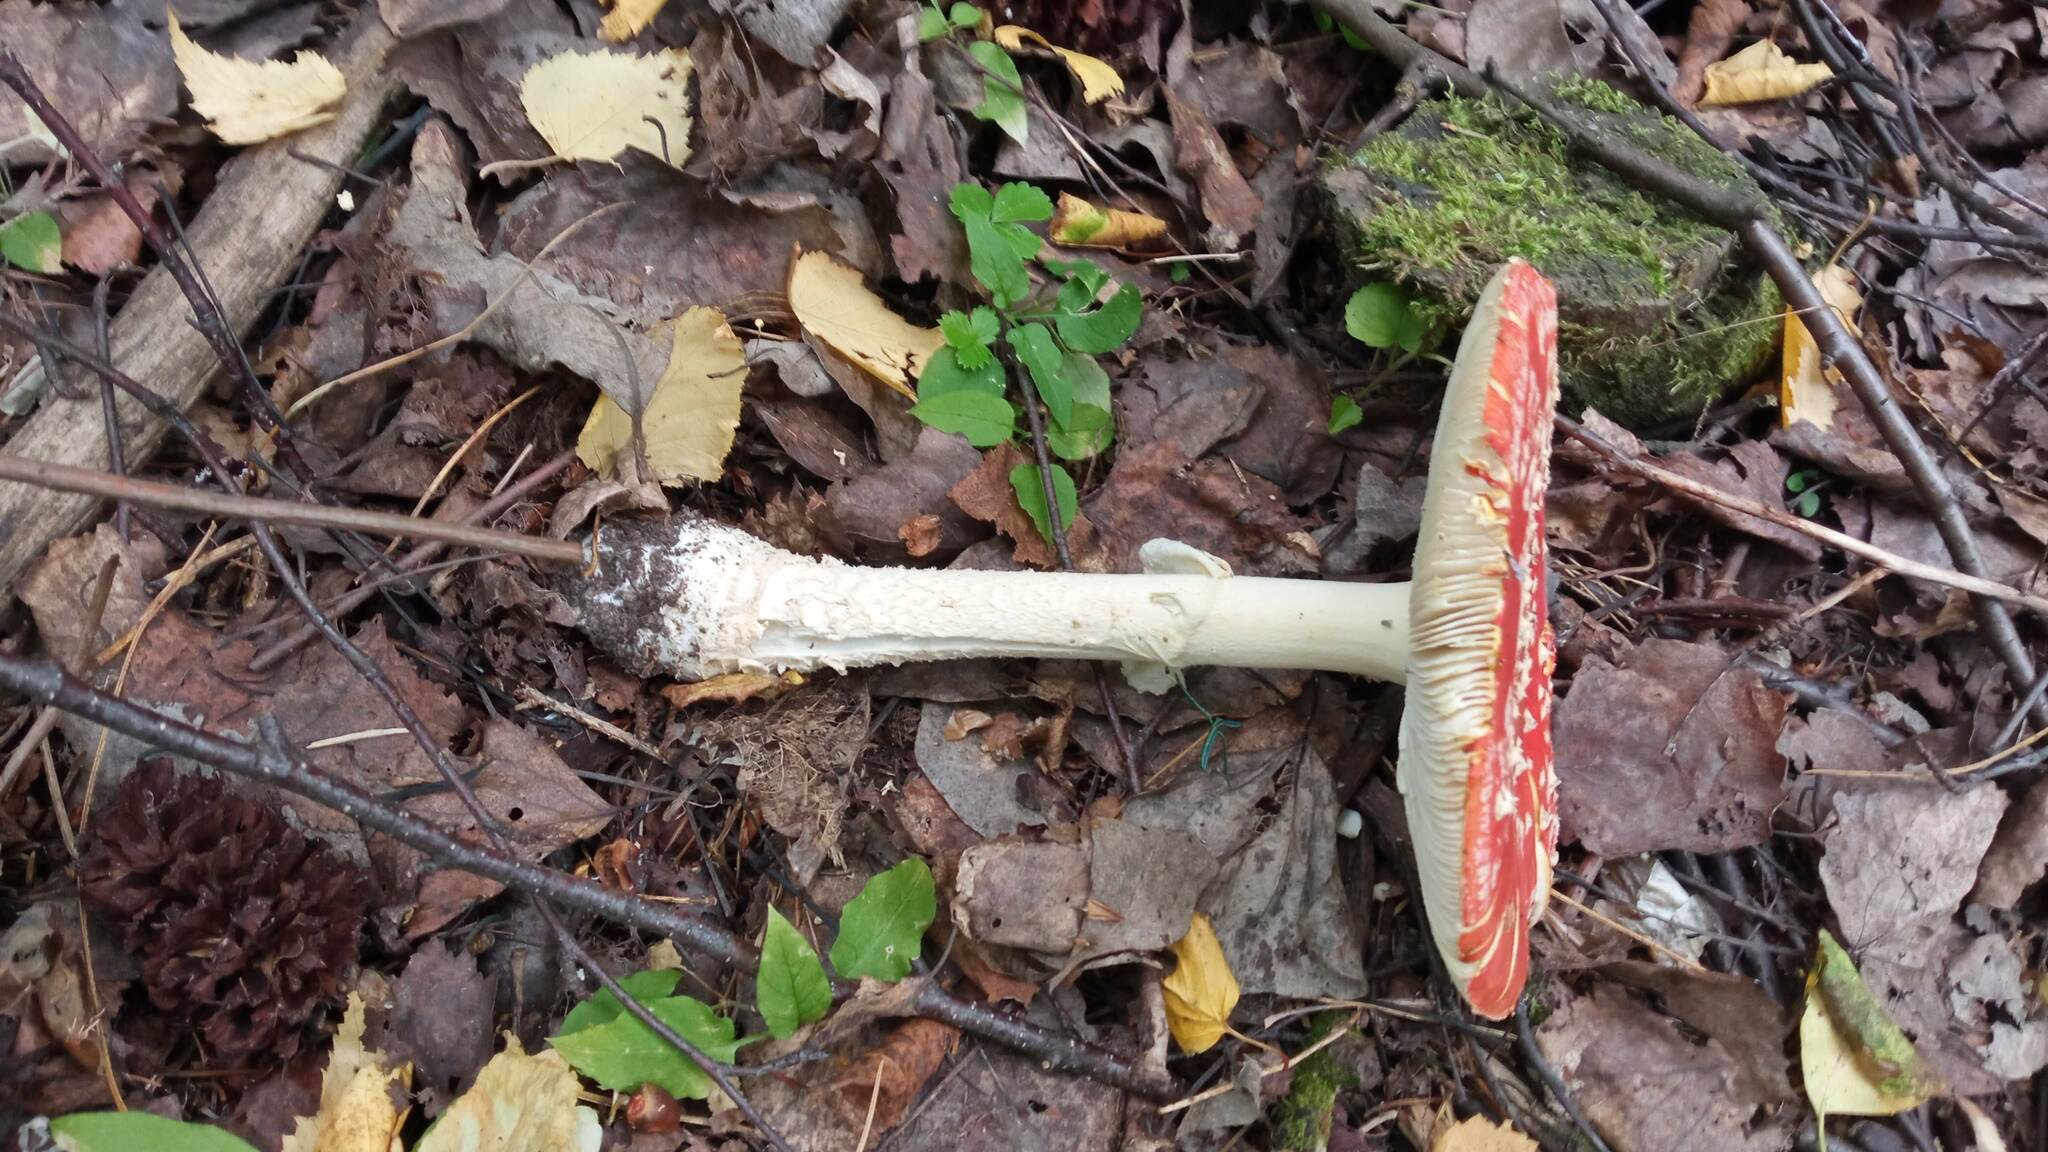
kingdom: Fungi
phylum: Basidiomycota
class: Agaricomycetes
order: Agaricales
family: Amanitaceae
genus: Amanita
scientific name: Amanita muscaria
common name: Fly agaric
